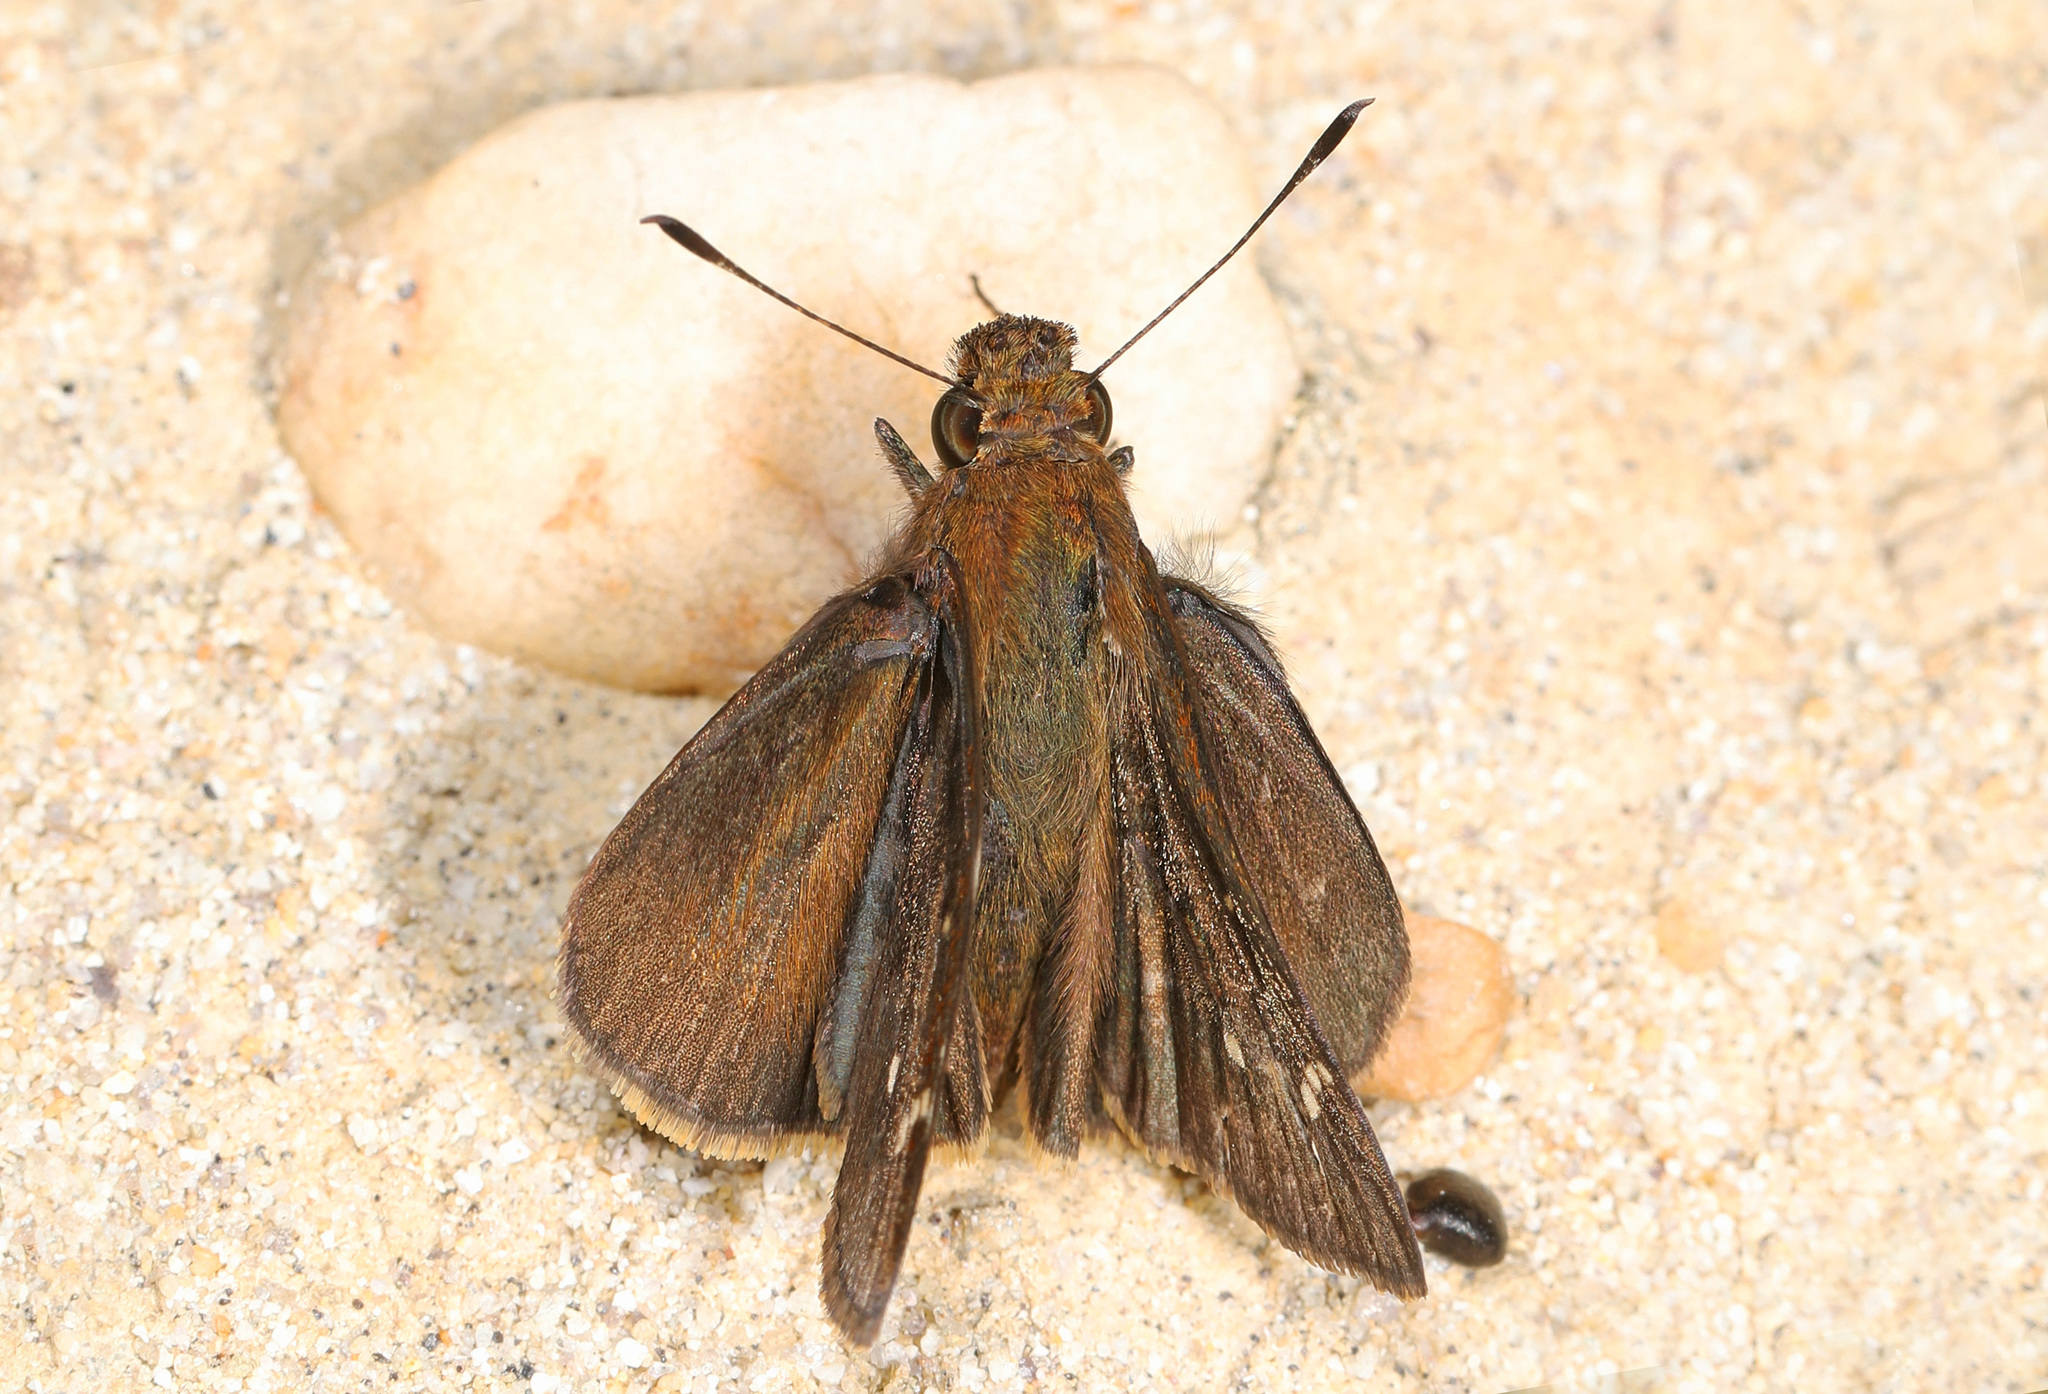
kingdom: Animalia
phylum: Arthropoda
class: Insecta
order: Lepidoptera
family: Hesperiidae
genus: Lerema
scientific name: Lerema accius
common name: Clouded skipper
